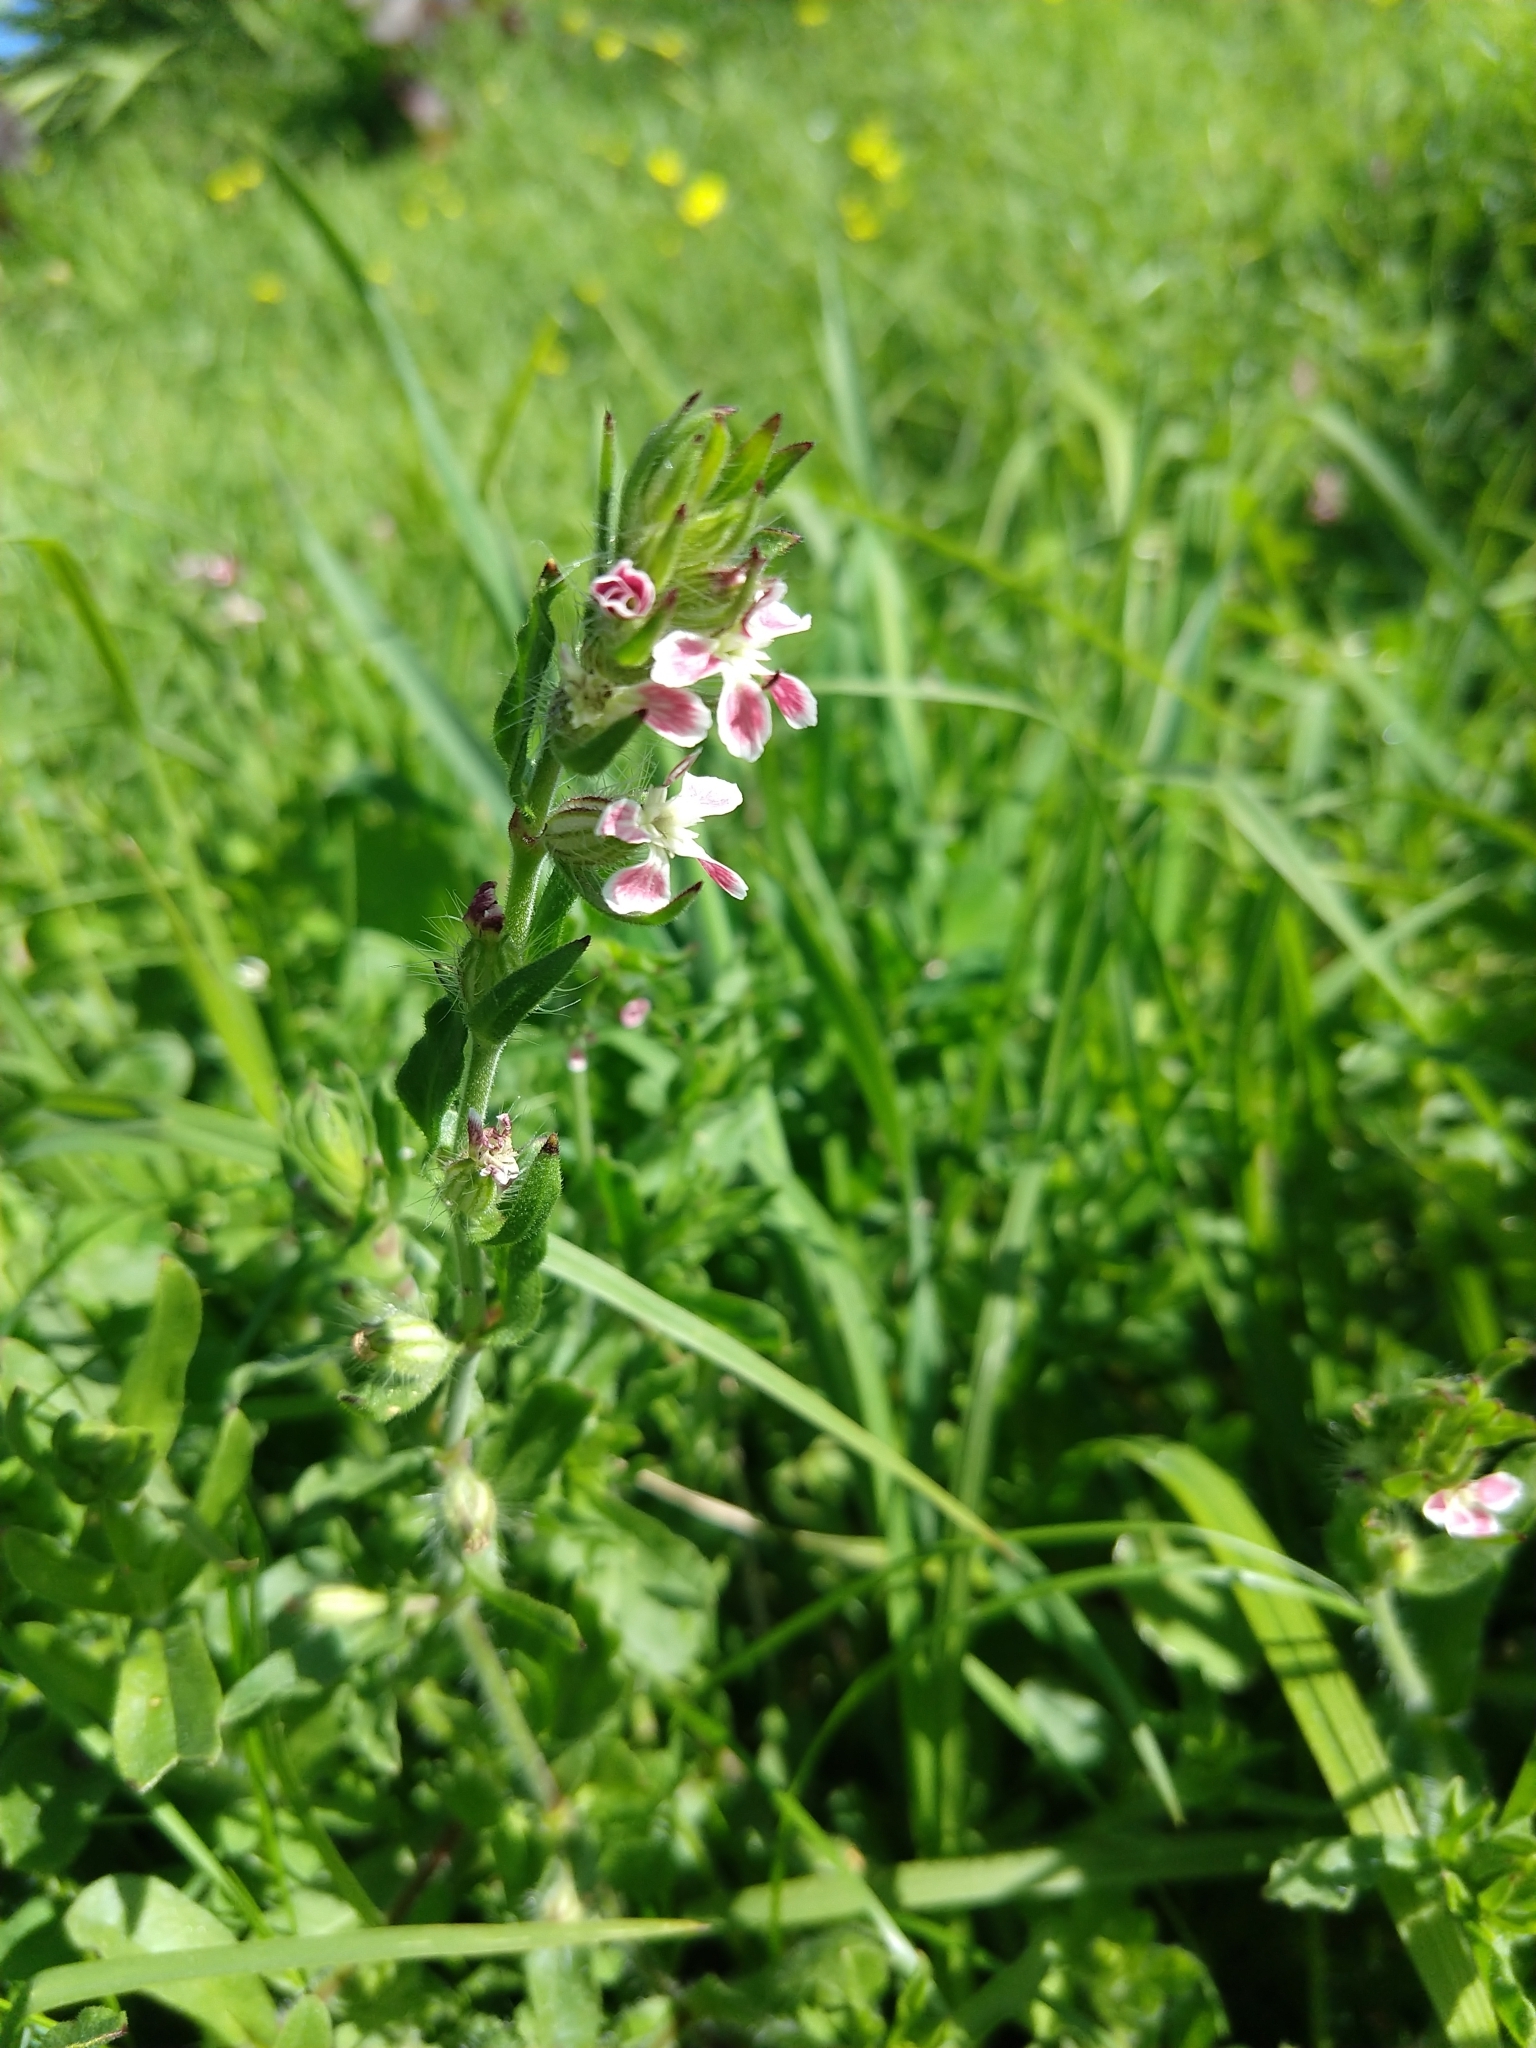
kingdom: Plantae
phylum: Tracheophyta
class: Magnoliopsida
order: Caryophyllales
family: Caryophyllaceae
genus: Silene
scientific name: Silene gallica
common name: Small-flowered catchfly
